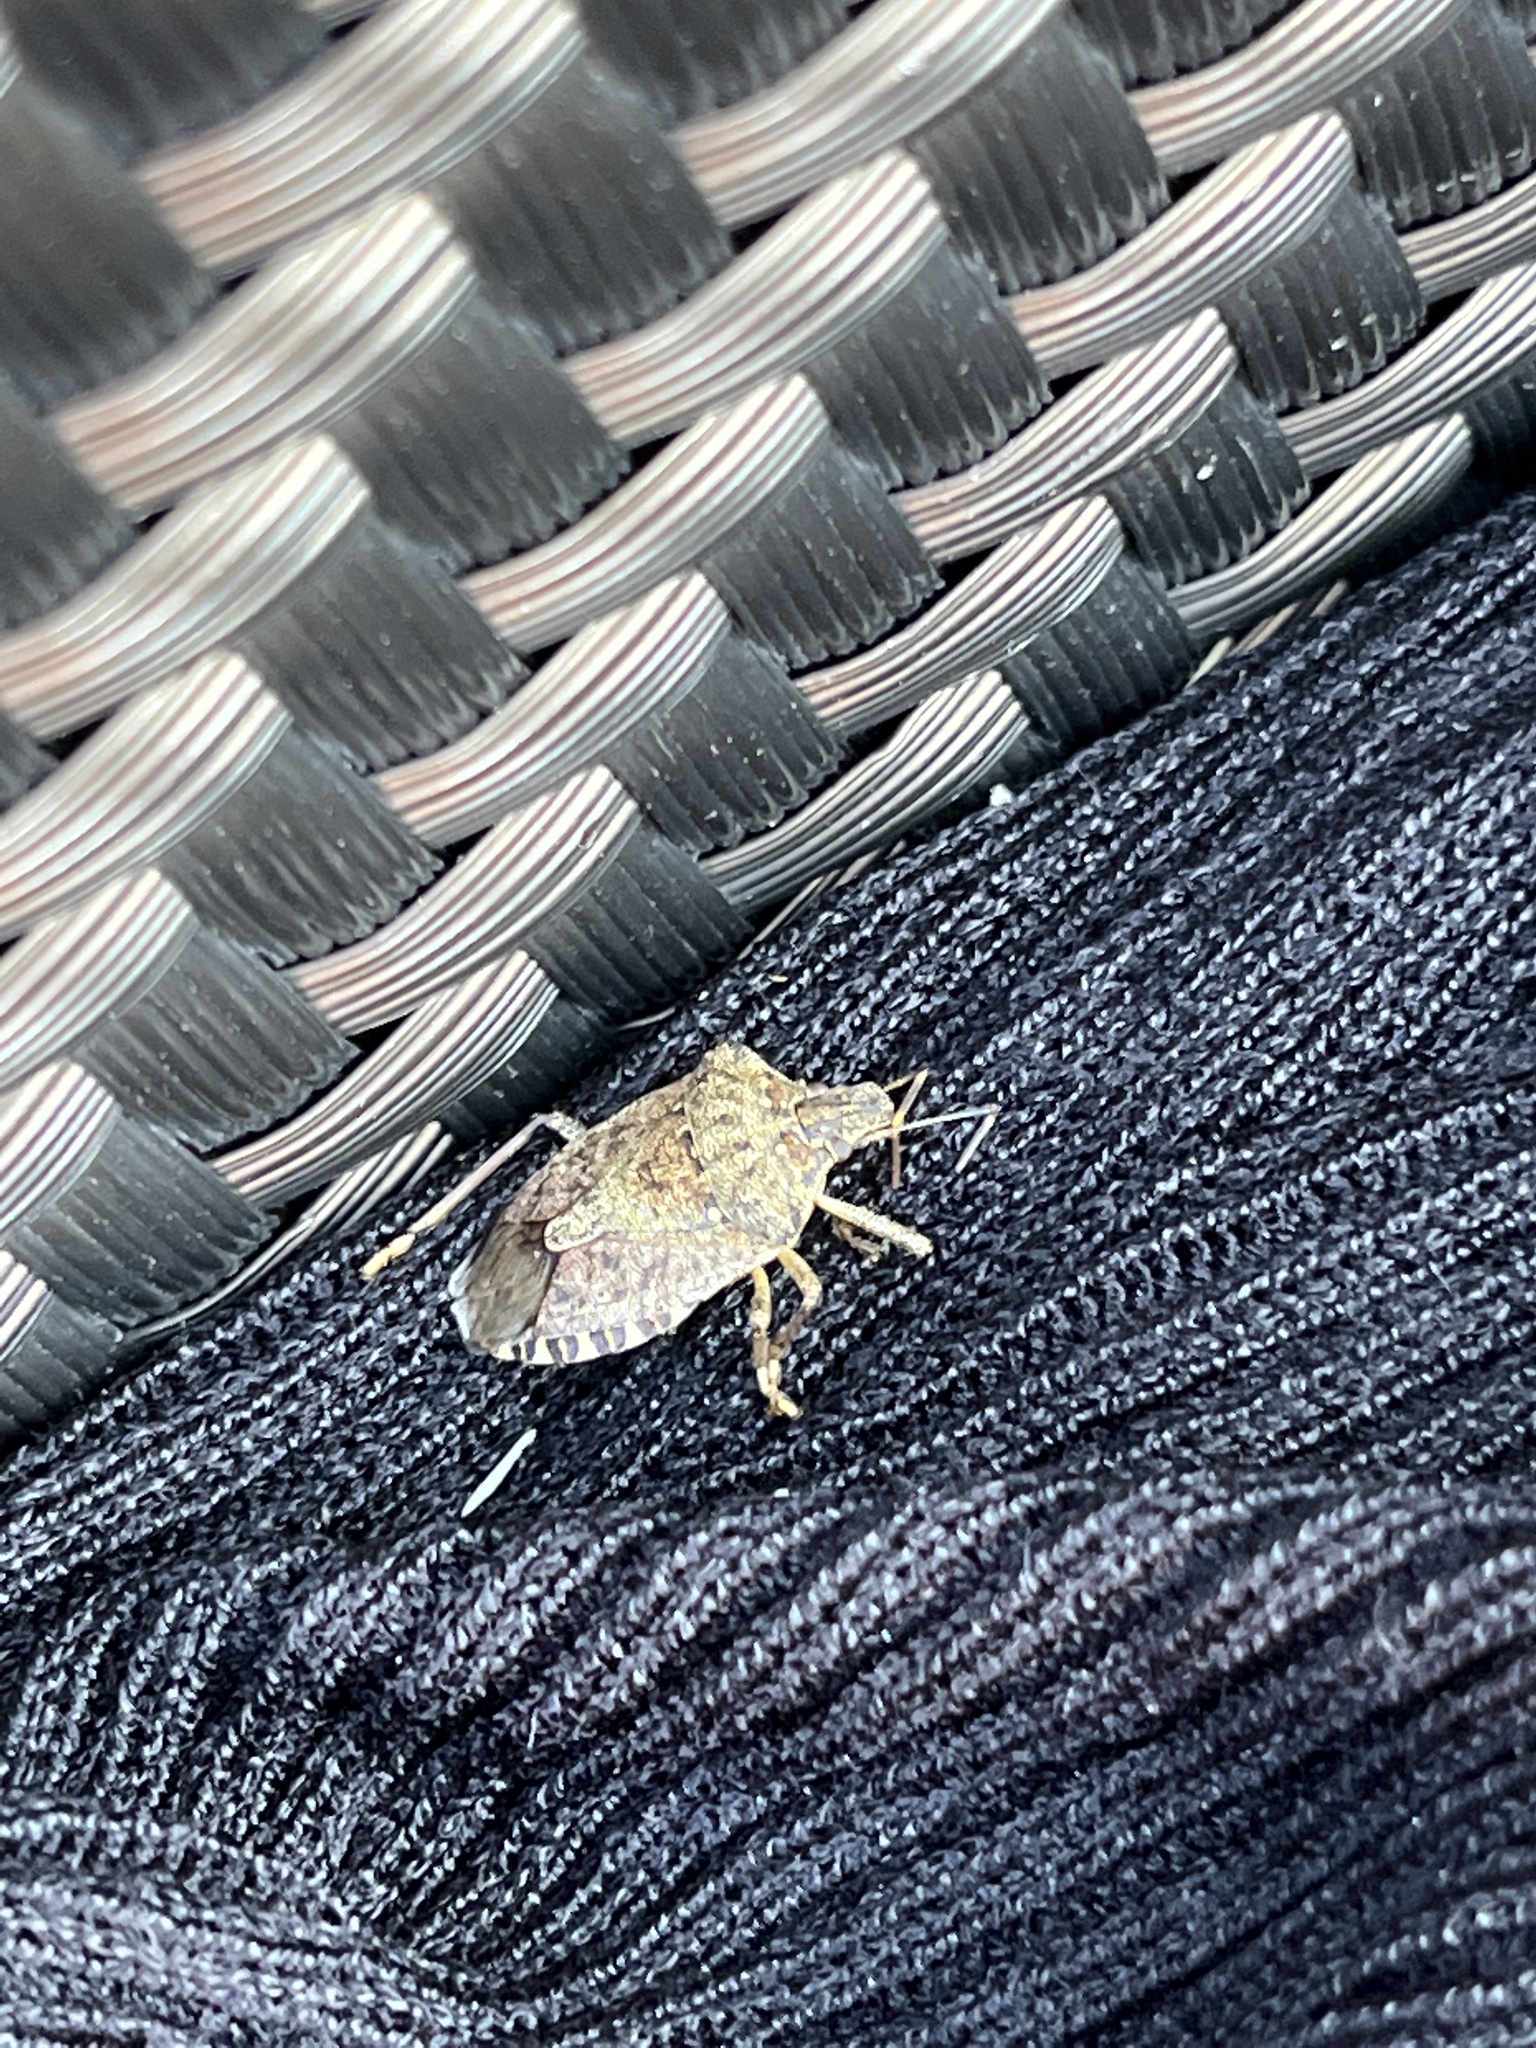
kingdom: Animalia
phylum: Arthropoda
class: Insecta
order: Hemiptera
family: Pentatomidae
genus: Halyomorpha
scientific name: Halyomorpha halys
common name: Brown marmorated stink bug
